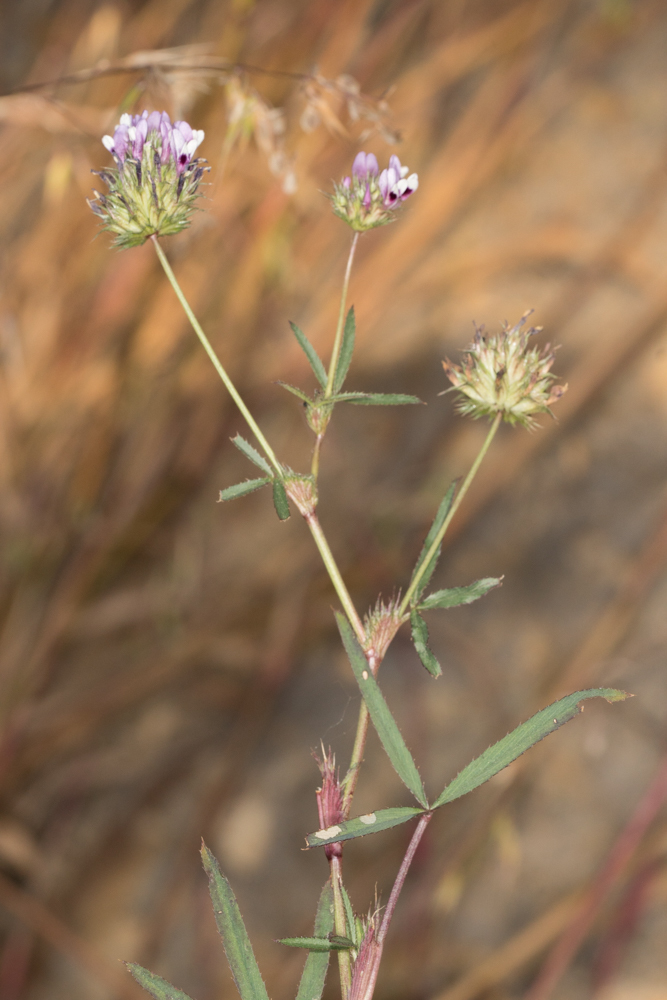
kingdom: Plantae
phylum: Tracheophyta
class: Magnoliopsida
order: Fabales
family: Fabaceae
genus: Trifolium
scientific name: Trifolium willdenovii
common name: Tomcat clover
